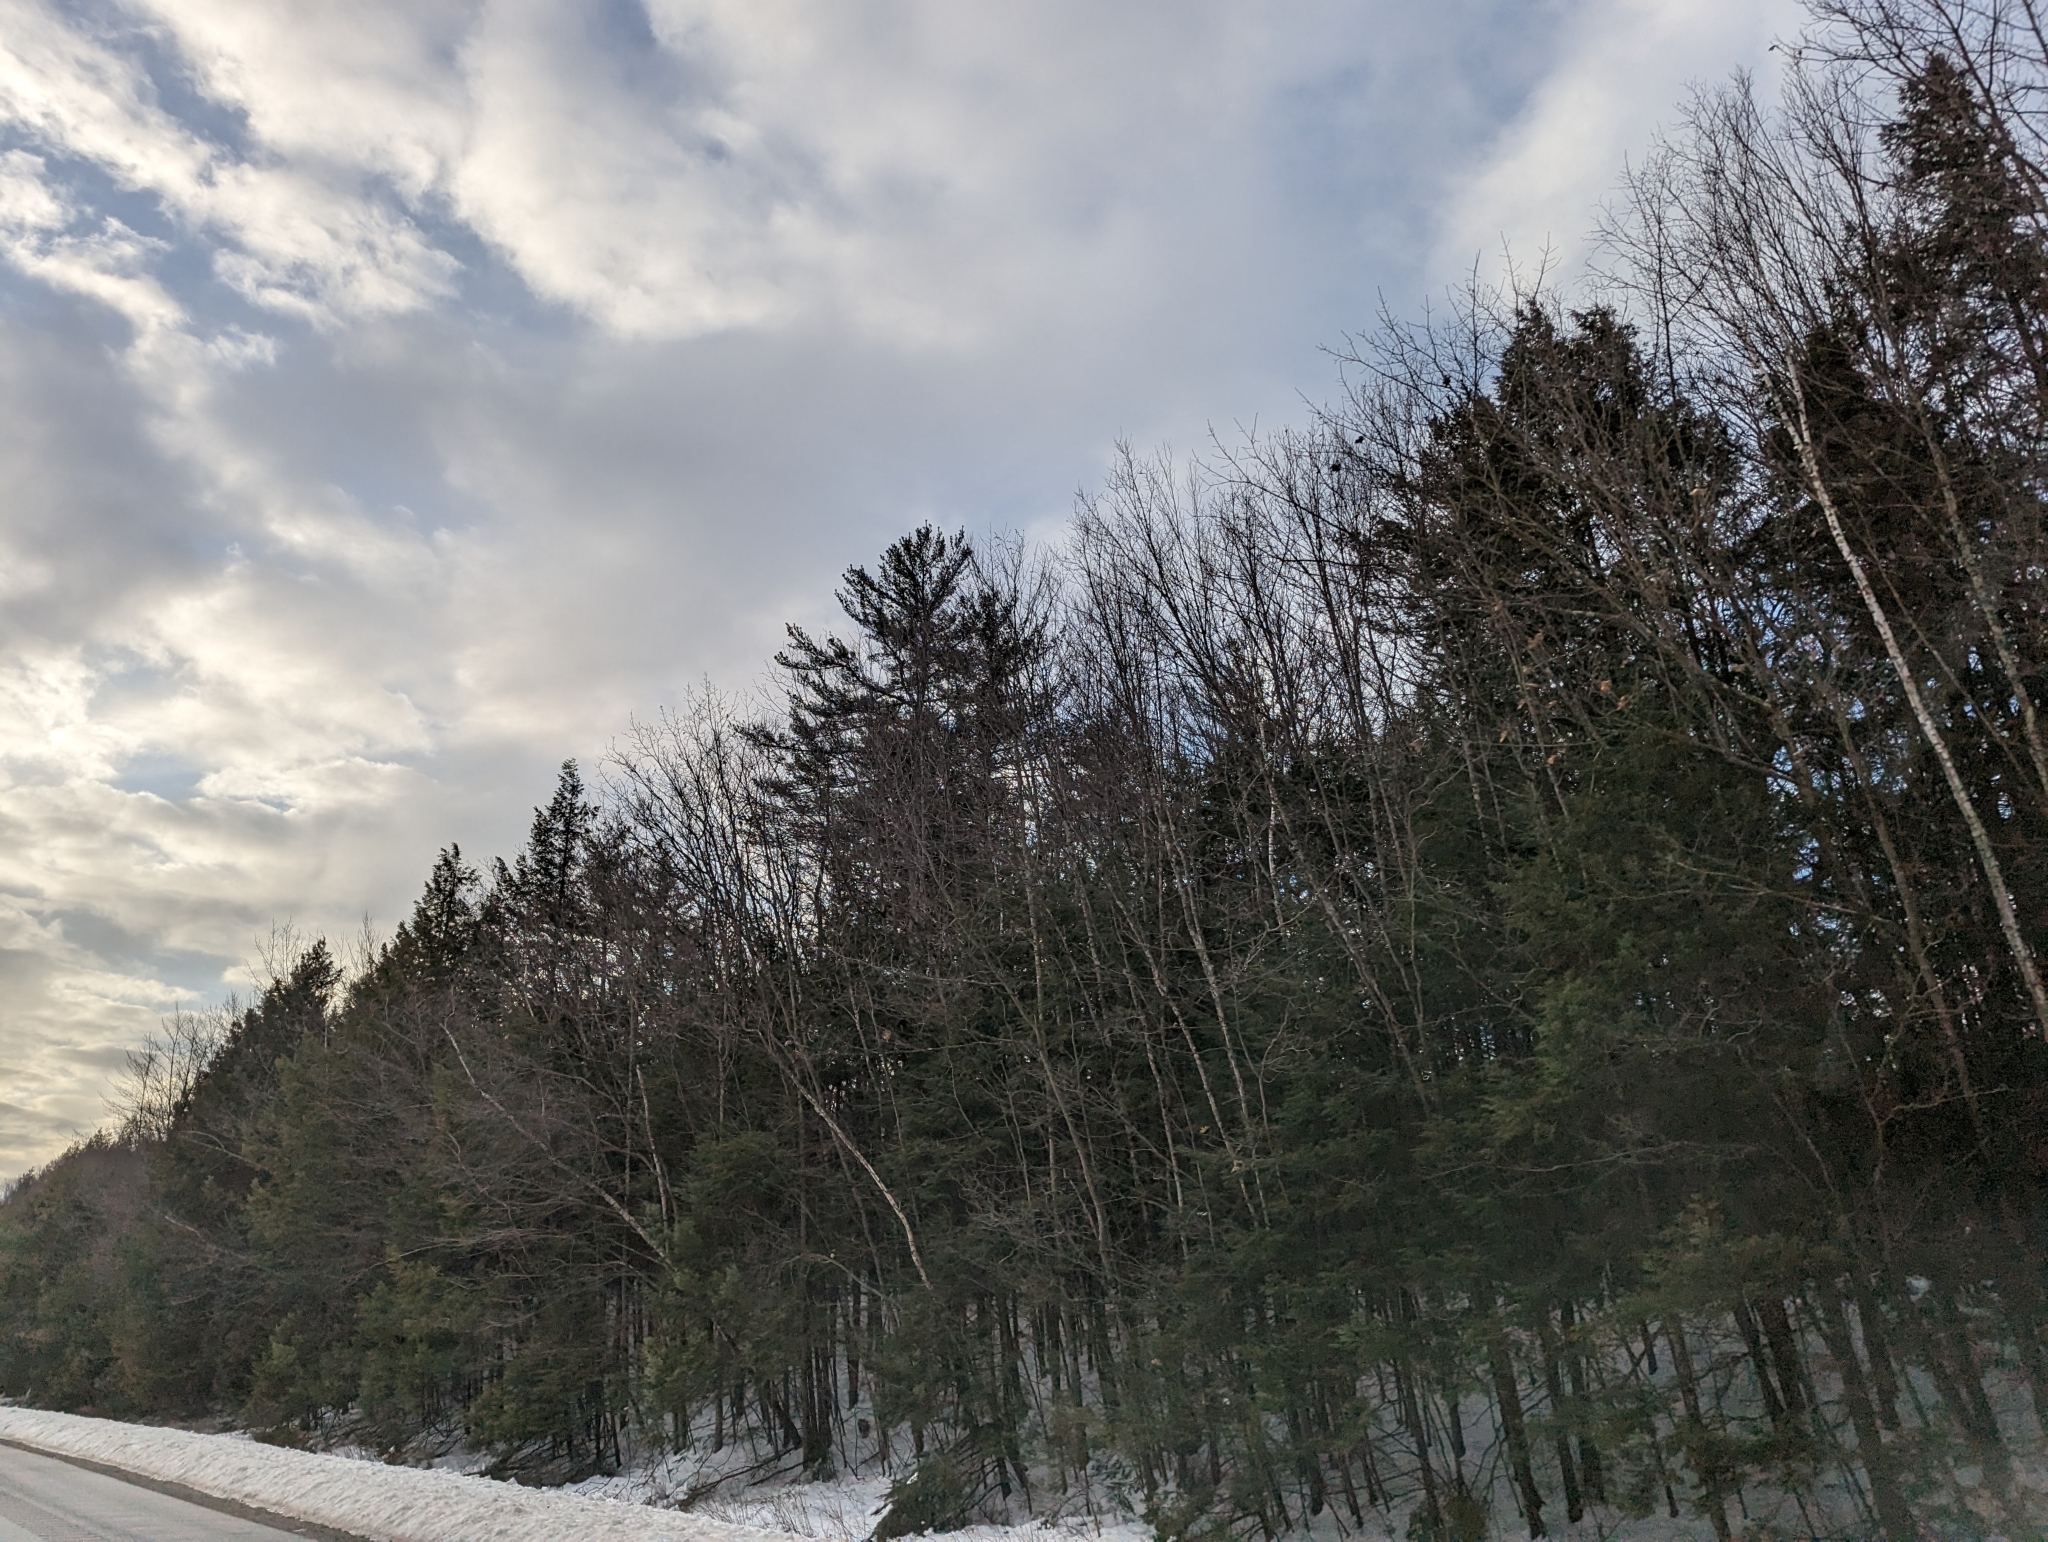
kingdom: Plantae
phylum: Tracheophyta
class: Pinopsida
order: Pinales
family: Pinaceae
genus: Pinus
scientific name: Pinus strobus
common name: Weymouth pine
